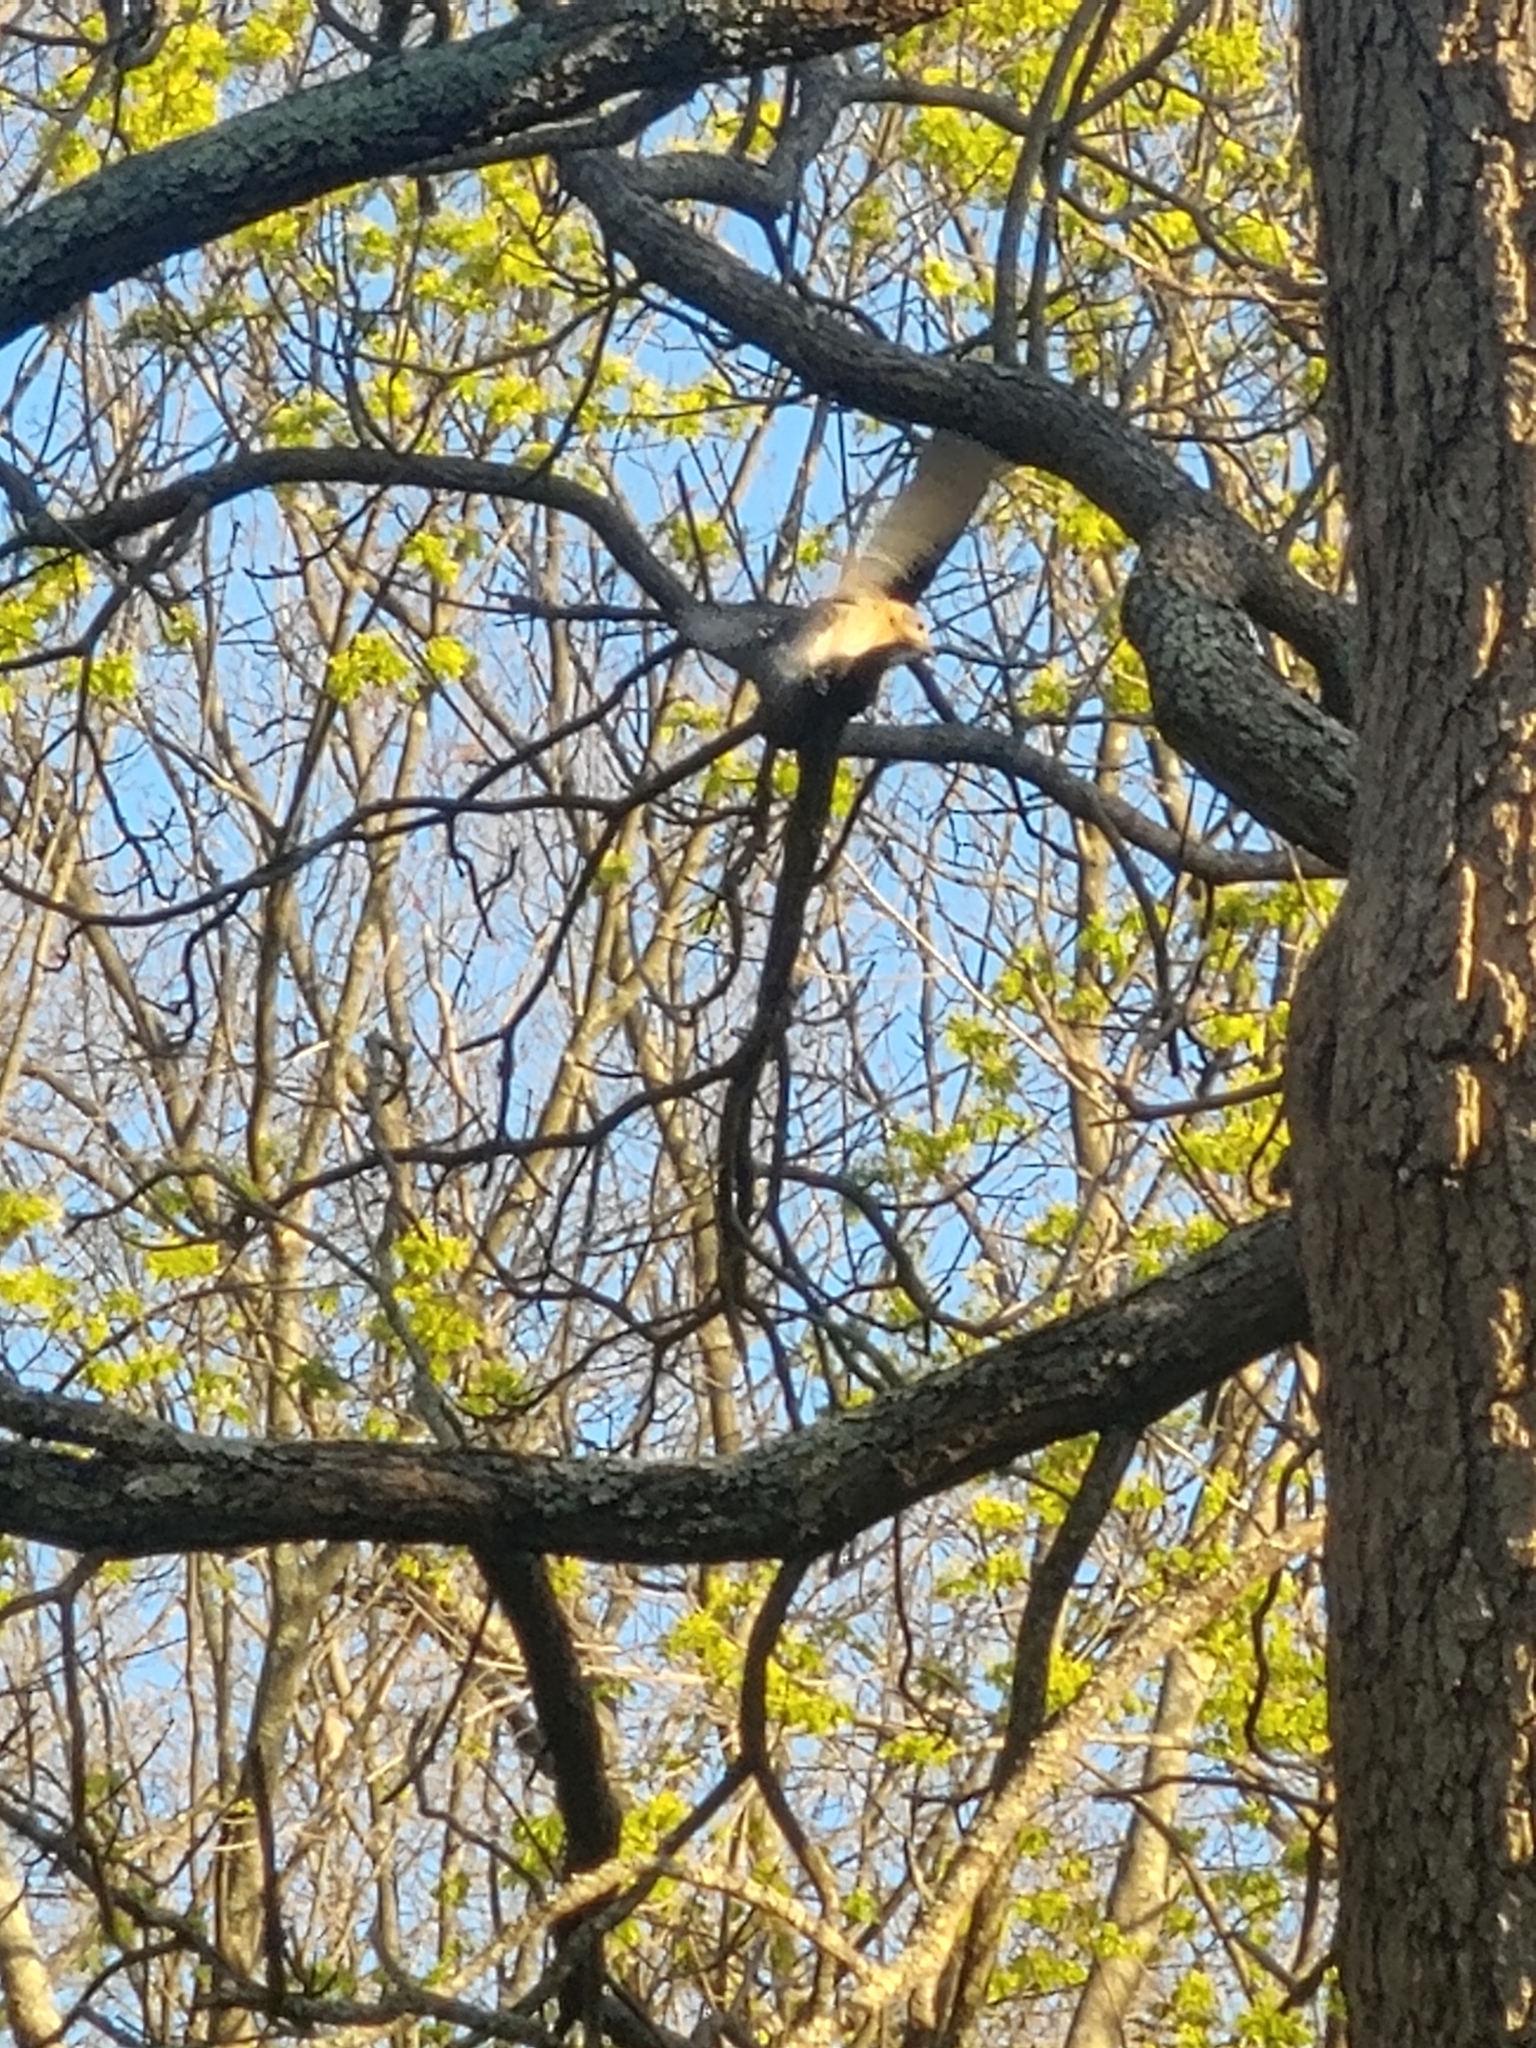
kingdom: Animalia
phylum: Chordata
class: Aves
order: Passeriformes
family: Turdidae
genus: Sialia
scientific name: Sialia sialis
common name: Eastern bluebird
